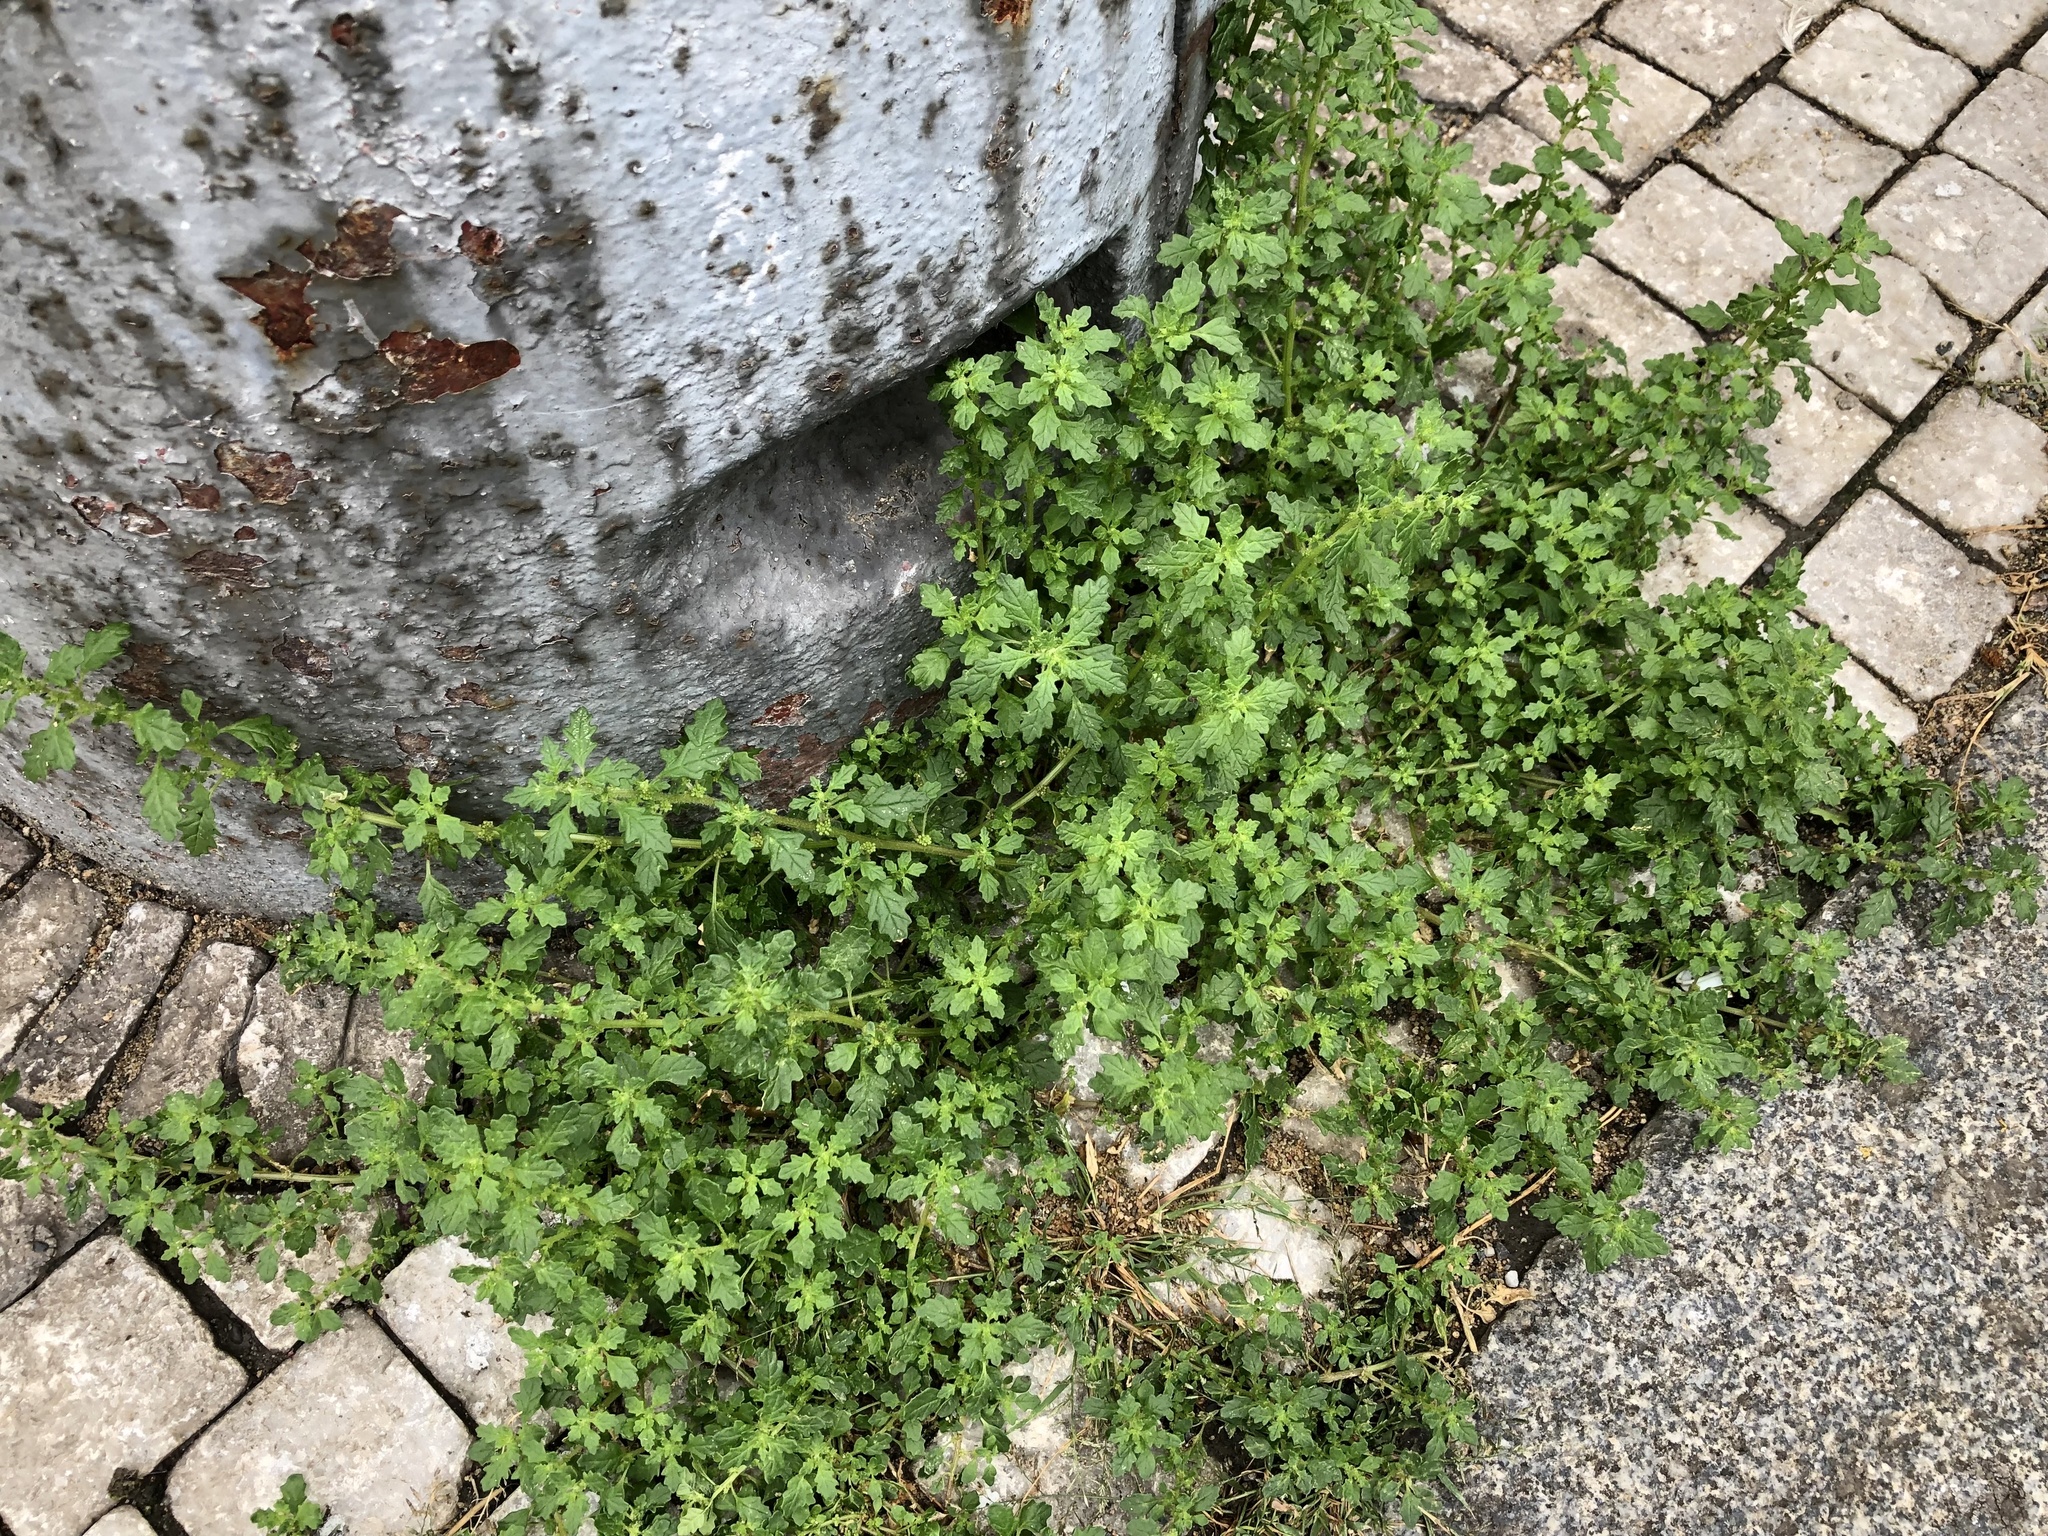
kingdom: Plantae
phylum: Tracheophyta
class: Magnoliopsida
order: Caryophyllales
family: Amaranthaceae
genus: Dysphania
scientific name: Dysphania pumilio
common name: Clammy goosefoot
